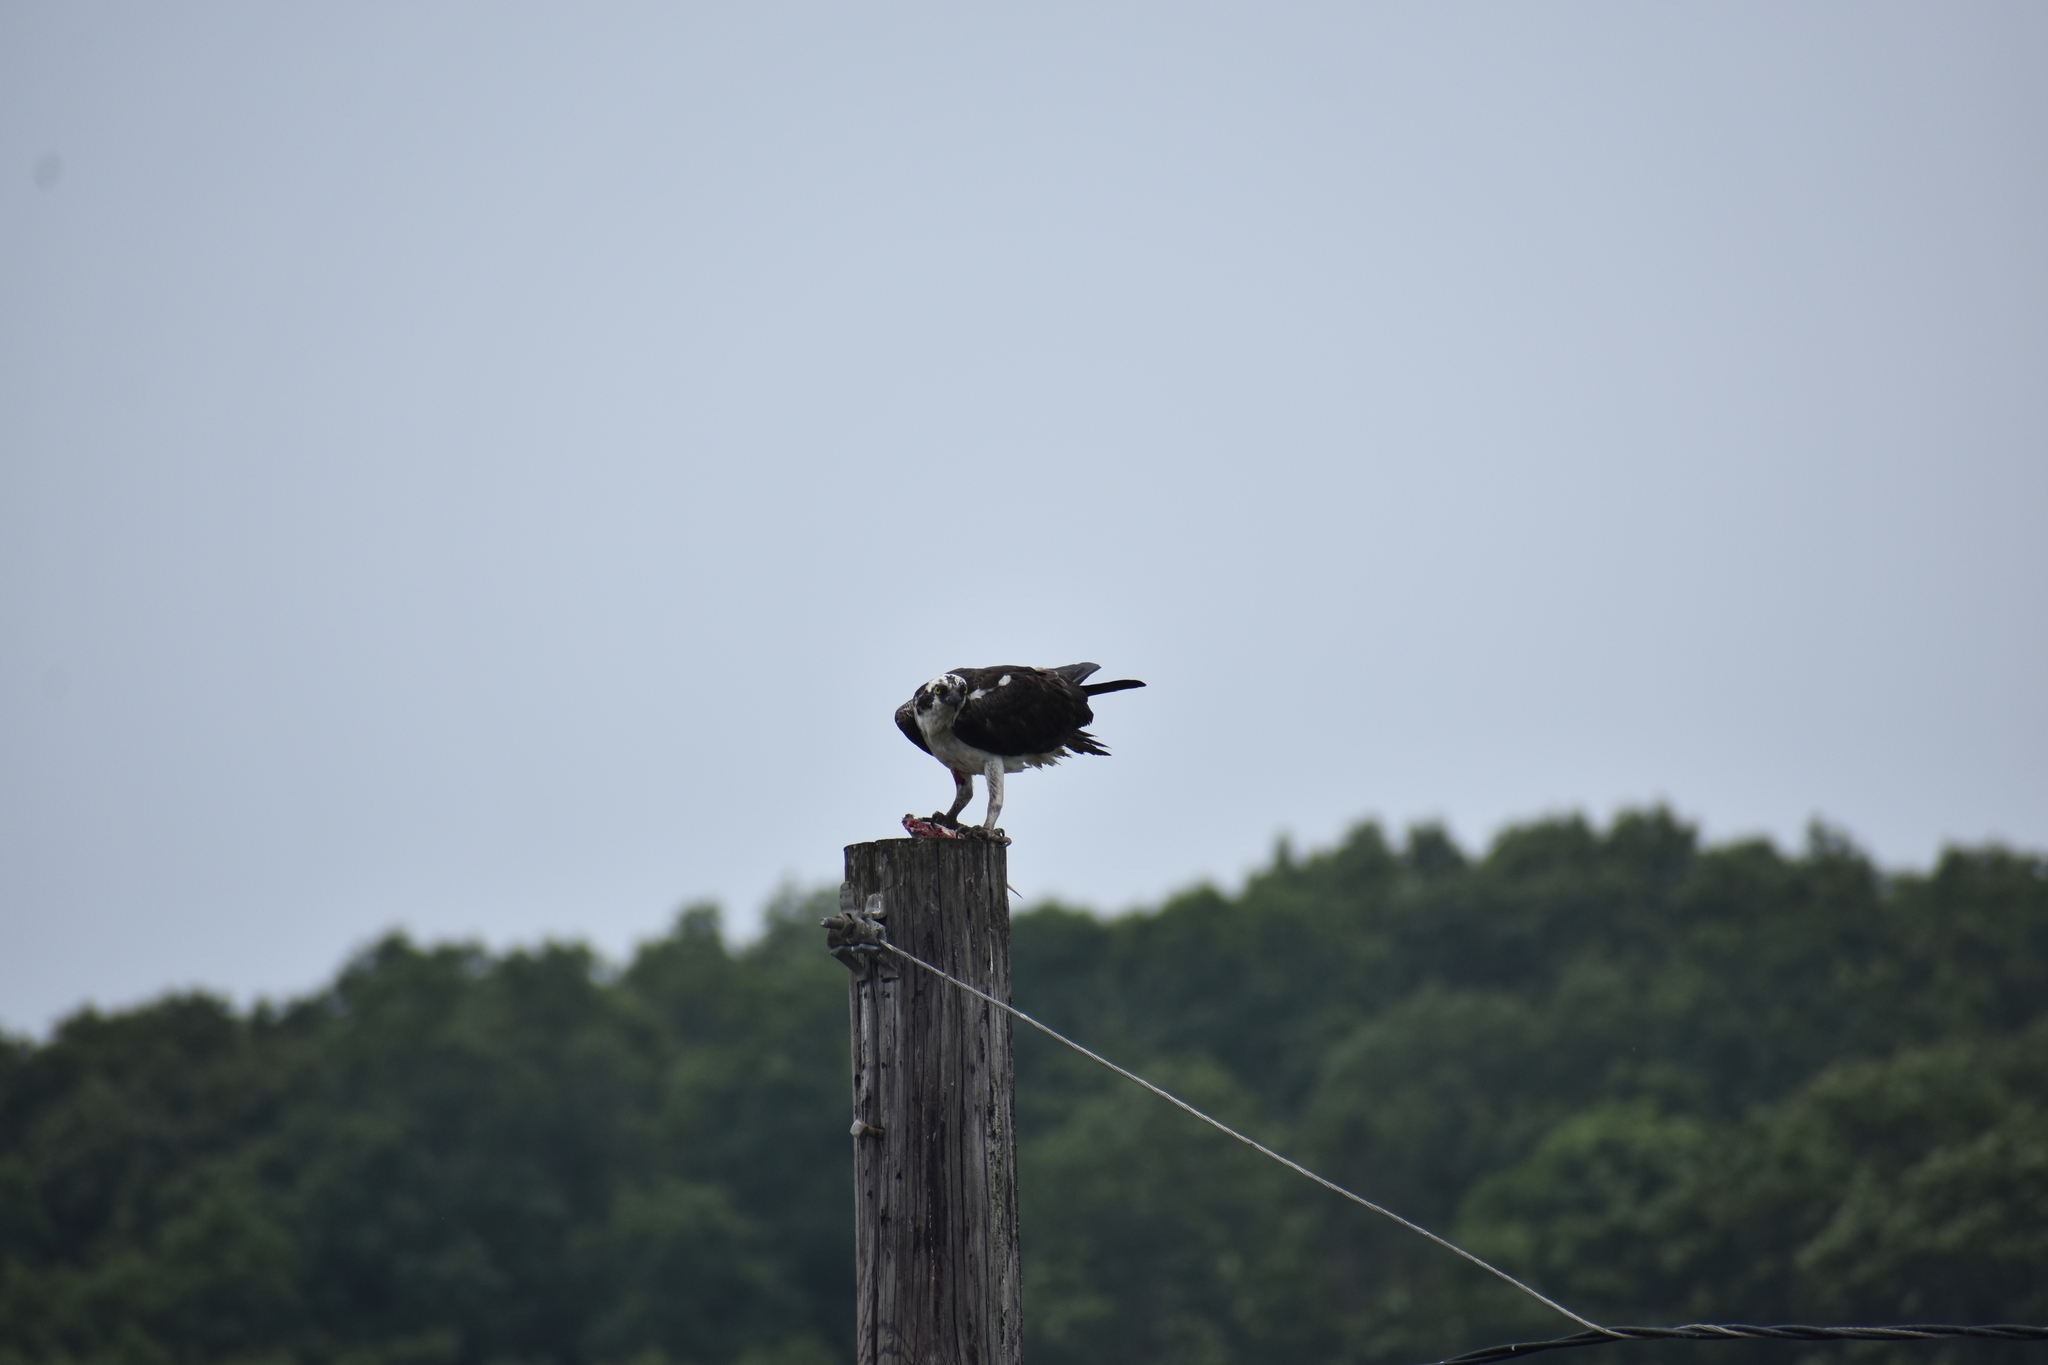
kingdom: Animalia
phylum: Chordata
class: Aves
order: Accipitriformes
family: Pandionidae
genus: Pandion
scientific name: Pandion haliaetus
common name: Osprey
